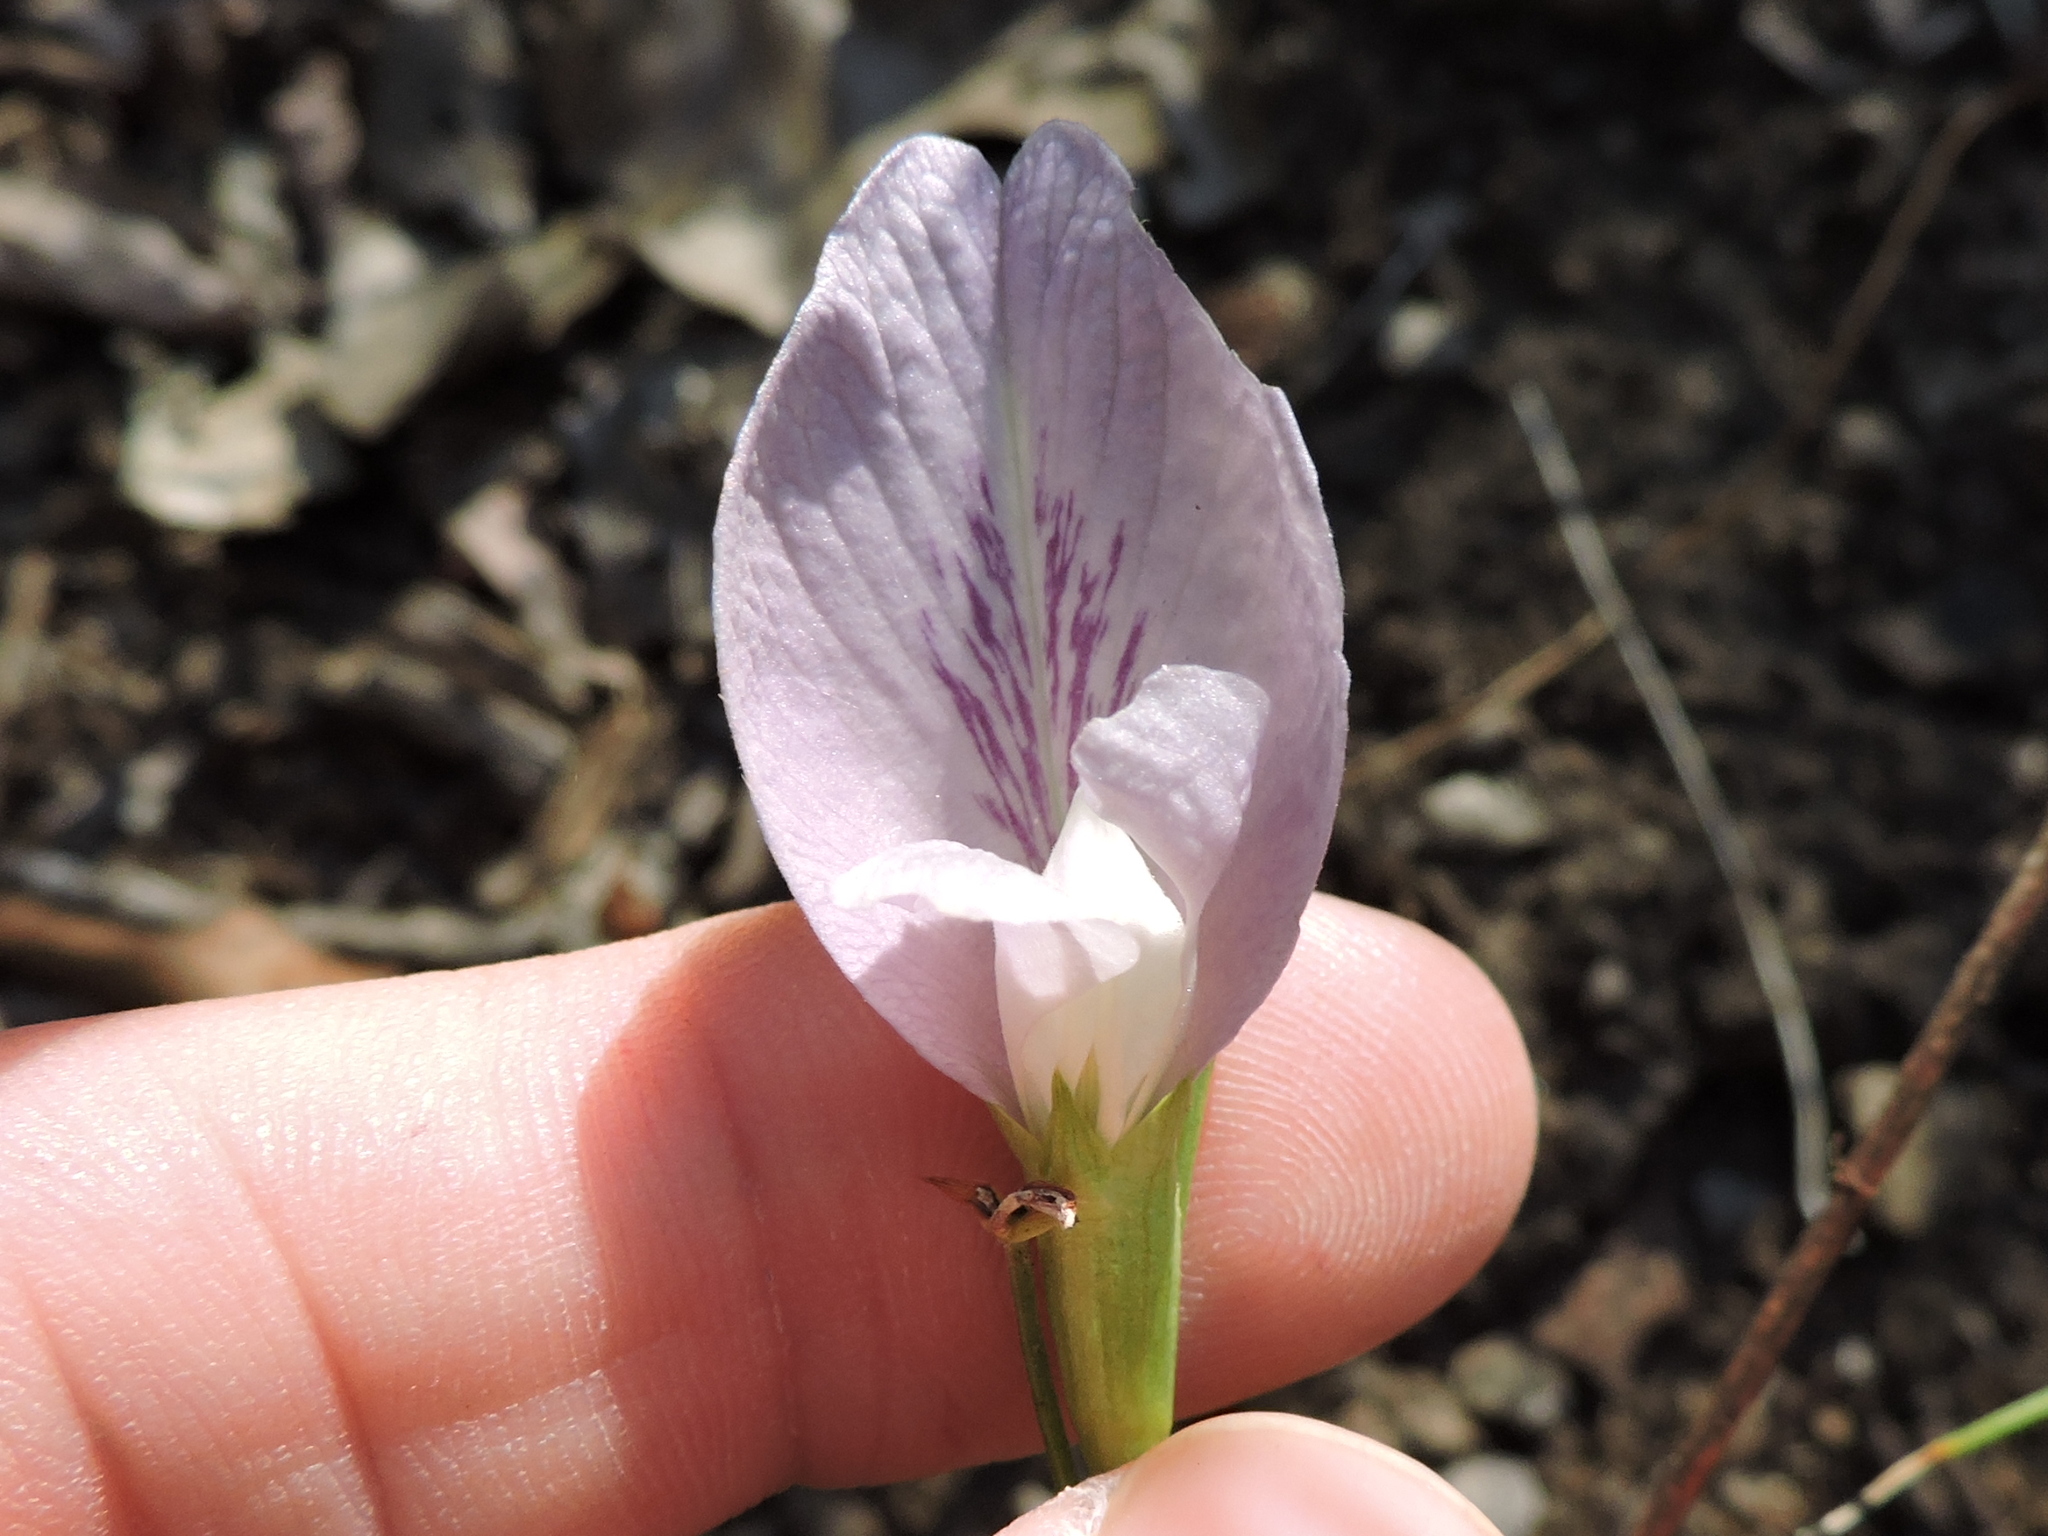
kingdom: Plantae
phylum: Tracheophyta
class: Magnoliopsida
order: Fabales
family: Fabaceae
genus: Clitoria
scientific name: Clitoria mariana
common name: Butterfly-pea
